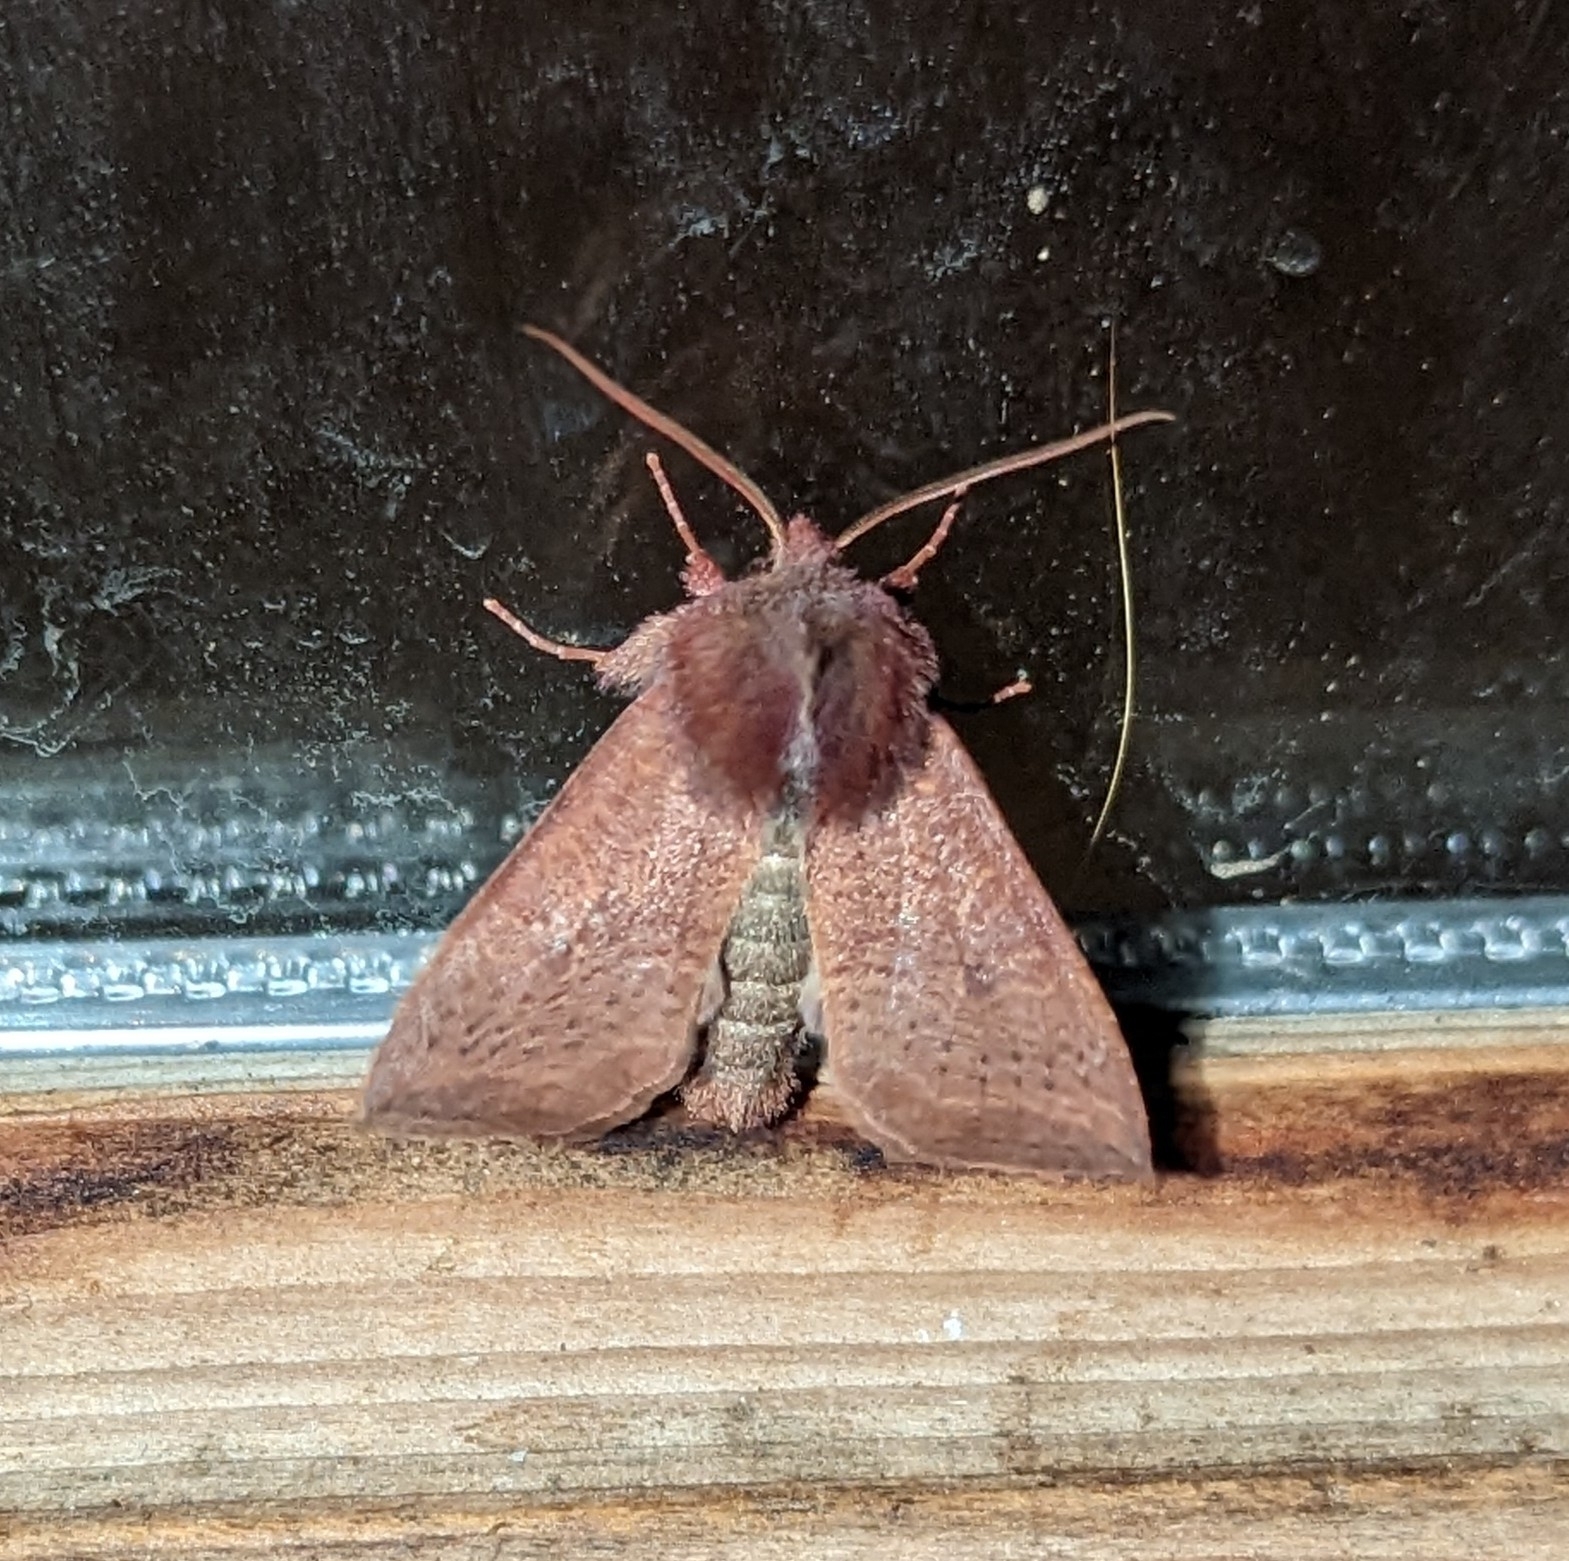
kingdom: Animalia
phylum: Arthropoda
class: Insecta
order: Lepidoptera
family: Noctuidae
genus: Orthosia
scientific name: Orthosia transparens
